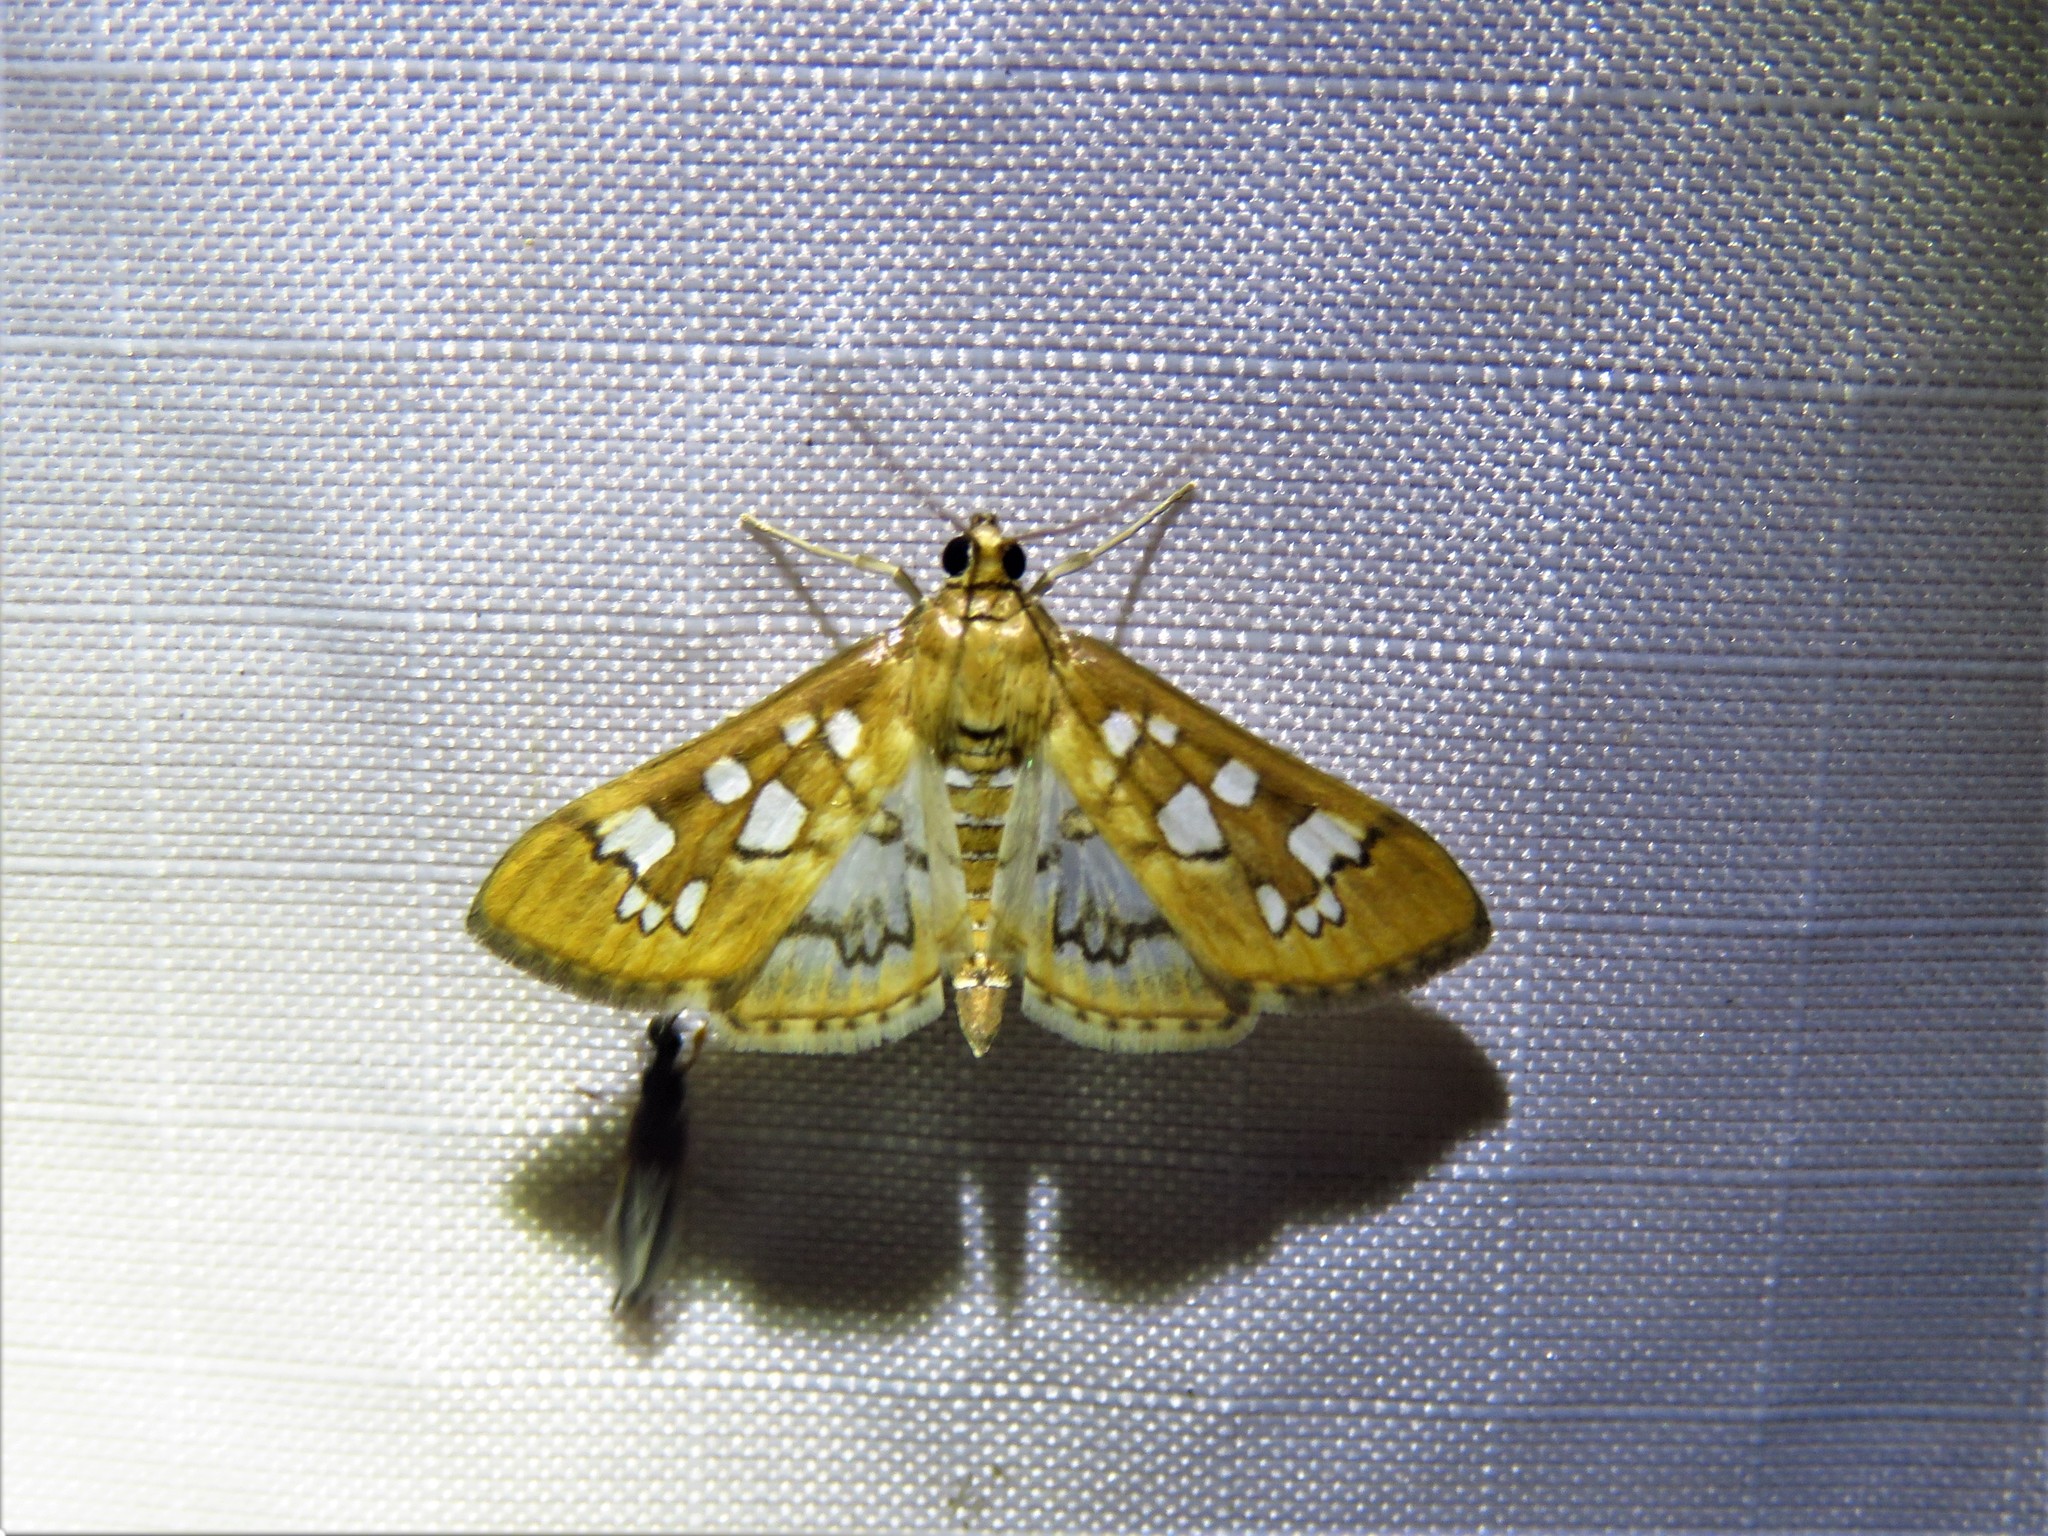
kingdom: Animalia
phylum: Arthropoda
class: Insecta
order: Lepidoptera
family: Crambidae
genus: Samea
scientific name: Samea baccatalis
